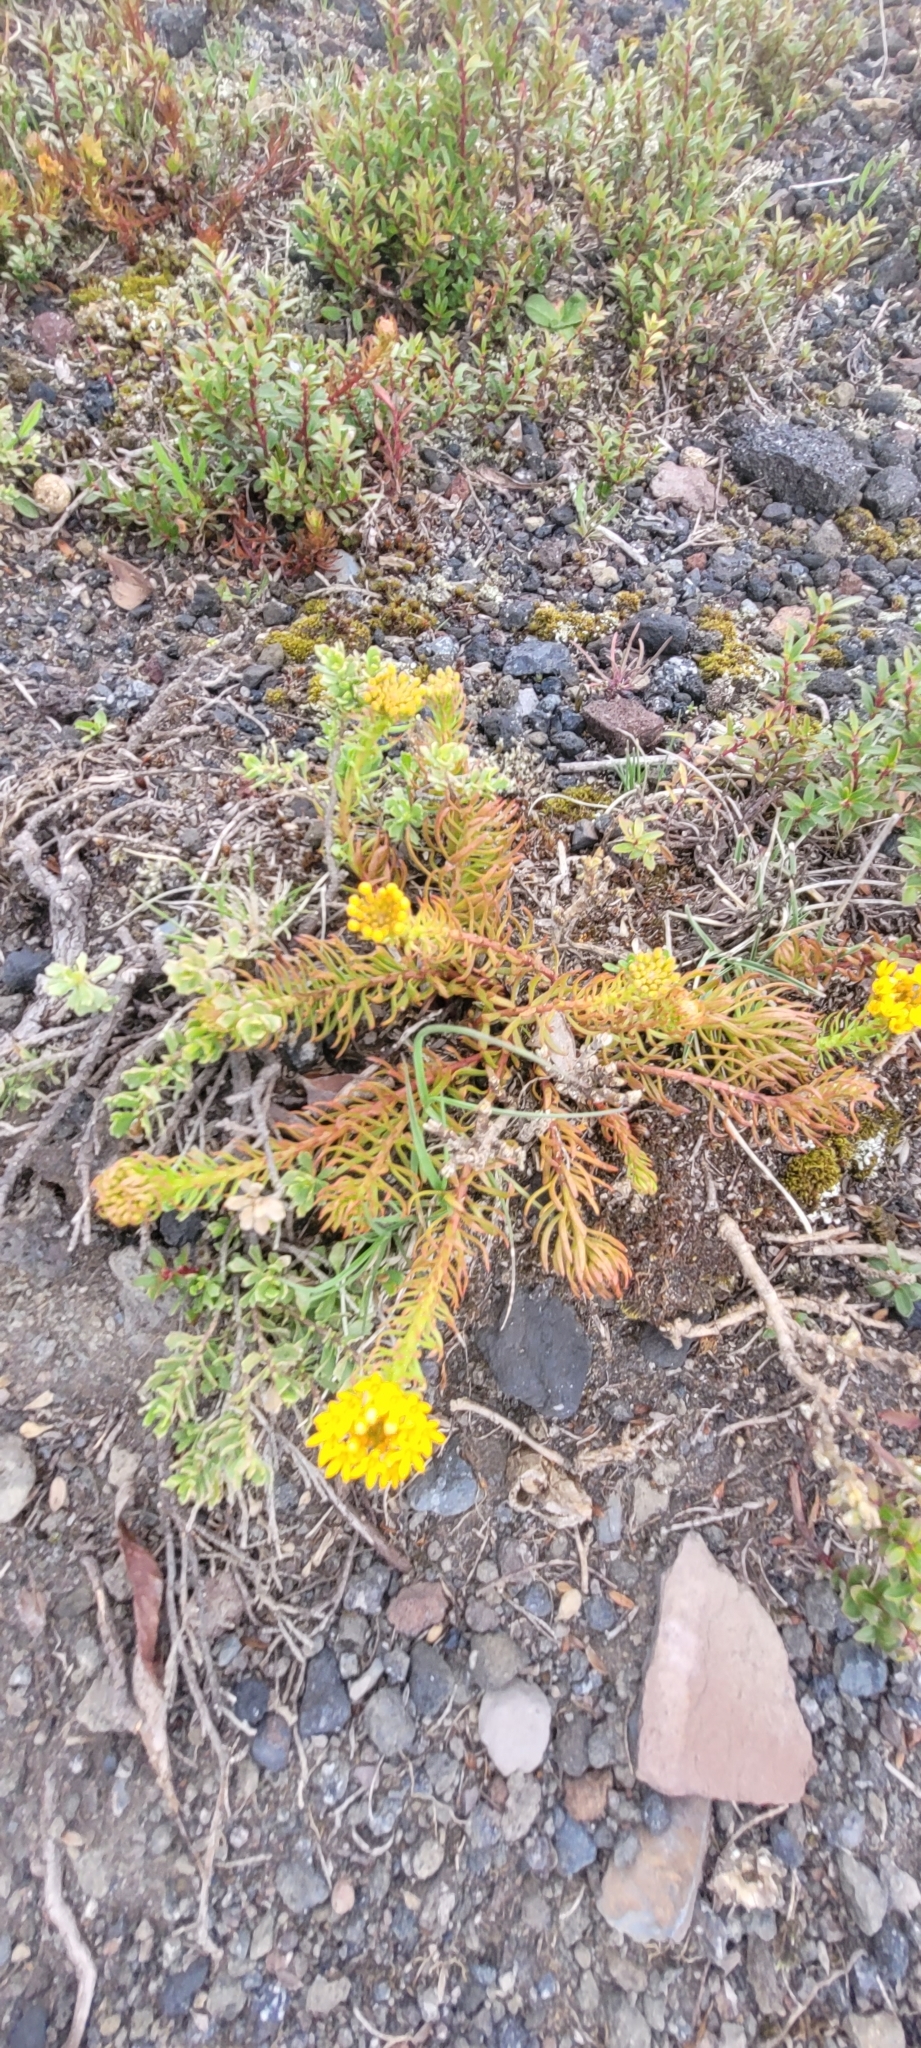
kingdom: Plantae
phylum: Tracheophyta
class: Magnoliopsida
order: Santalales
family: Schoepfiaceae
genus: Quinchamalium
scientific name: Quinchamalium chilense
